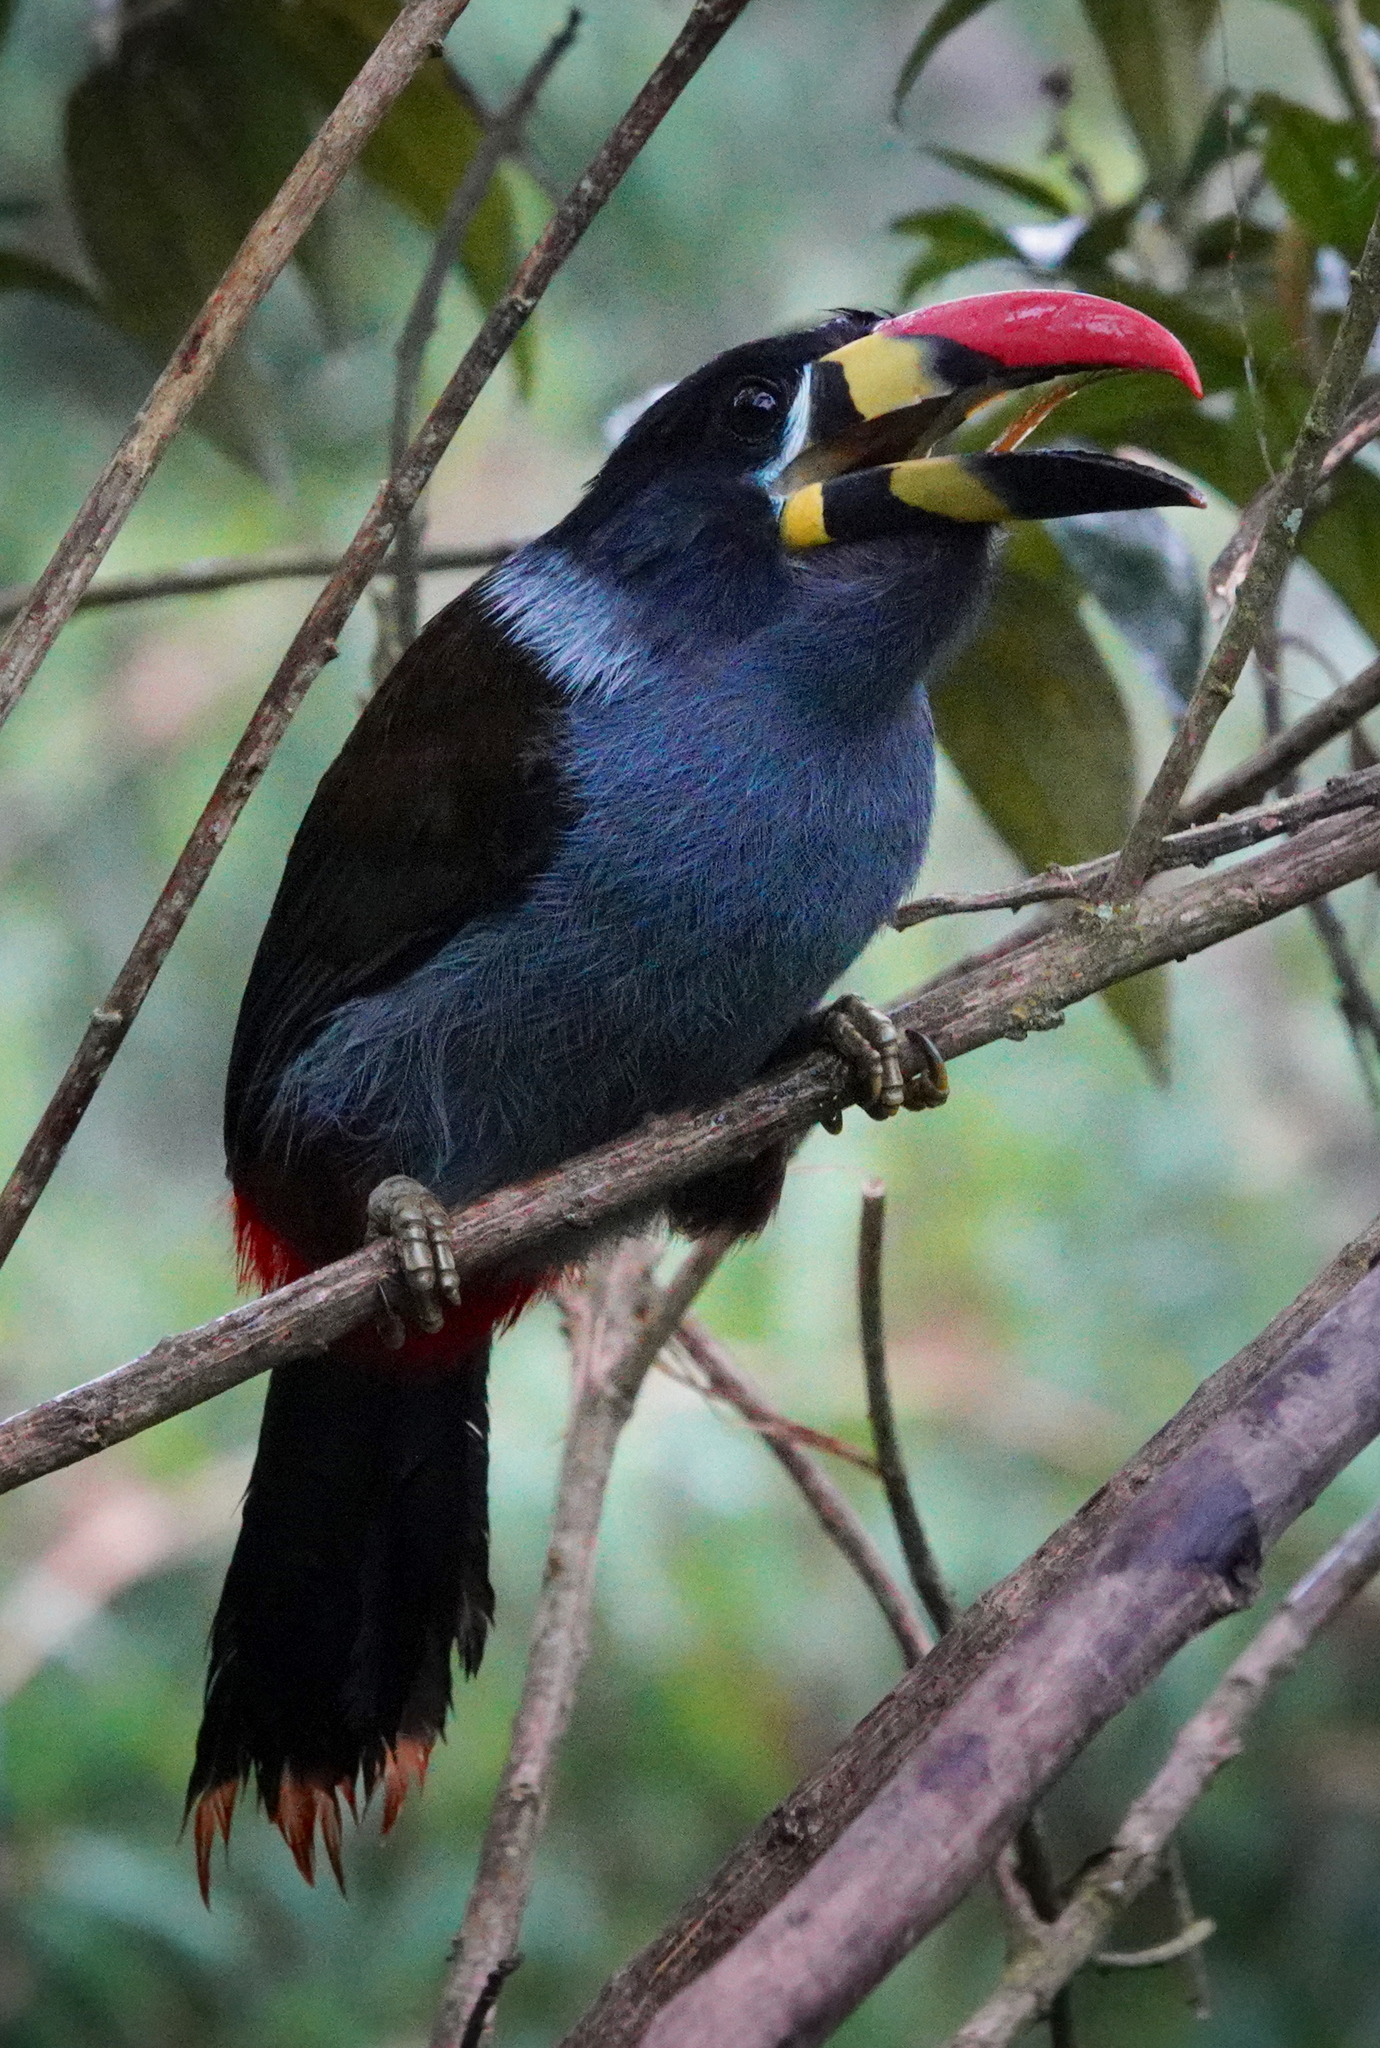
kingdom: Animalia
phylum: Chordata
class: Aves
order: Piciformes
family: Ramphastidae
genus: Andigena
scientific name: Andigena hypoglauca
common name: Grey-breasted mountain toucan
